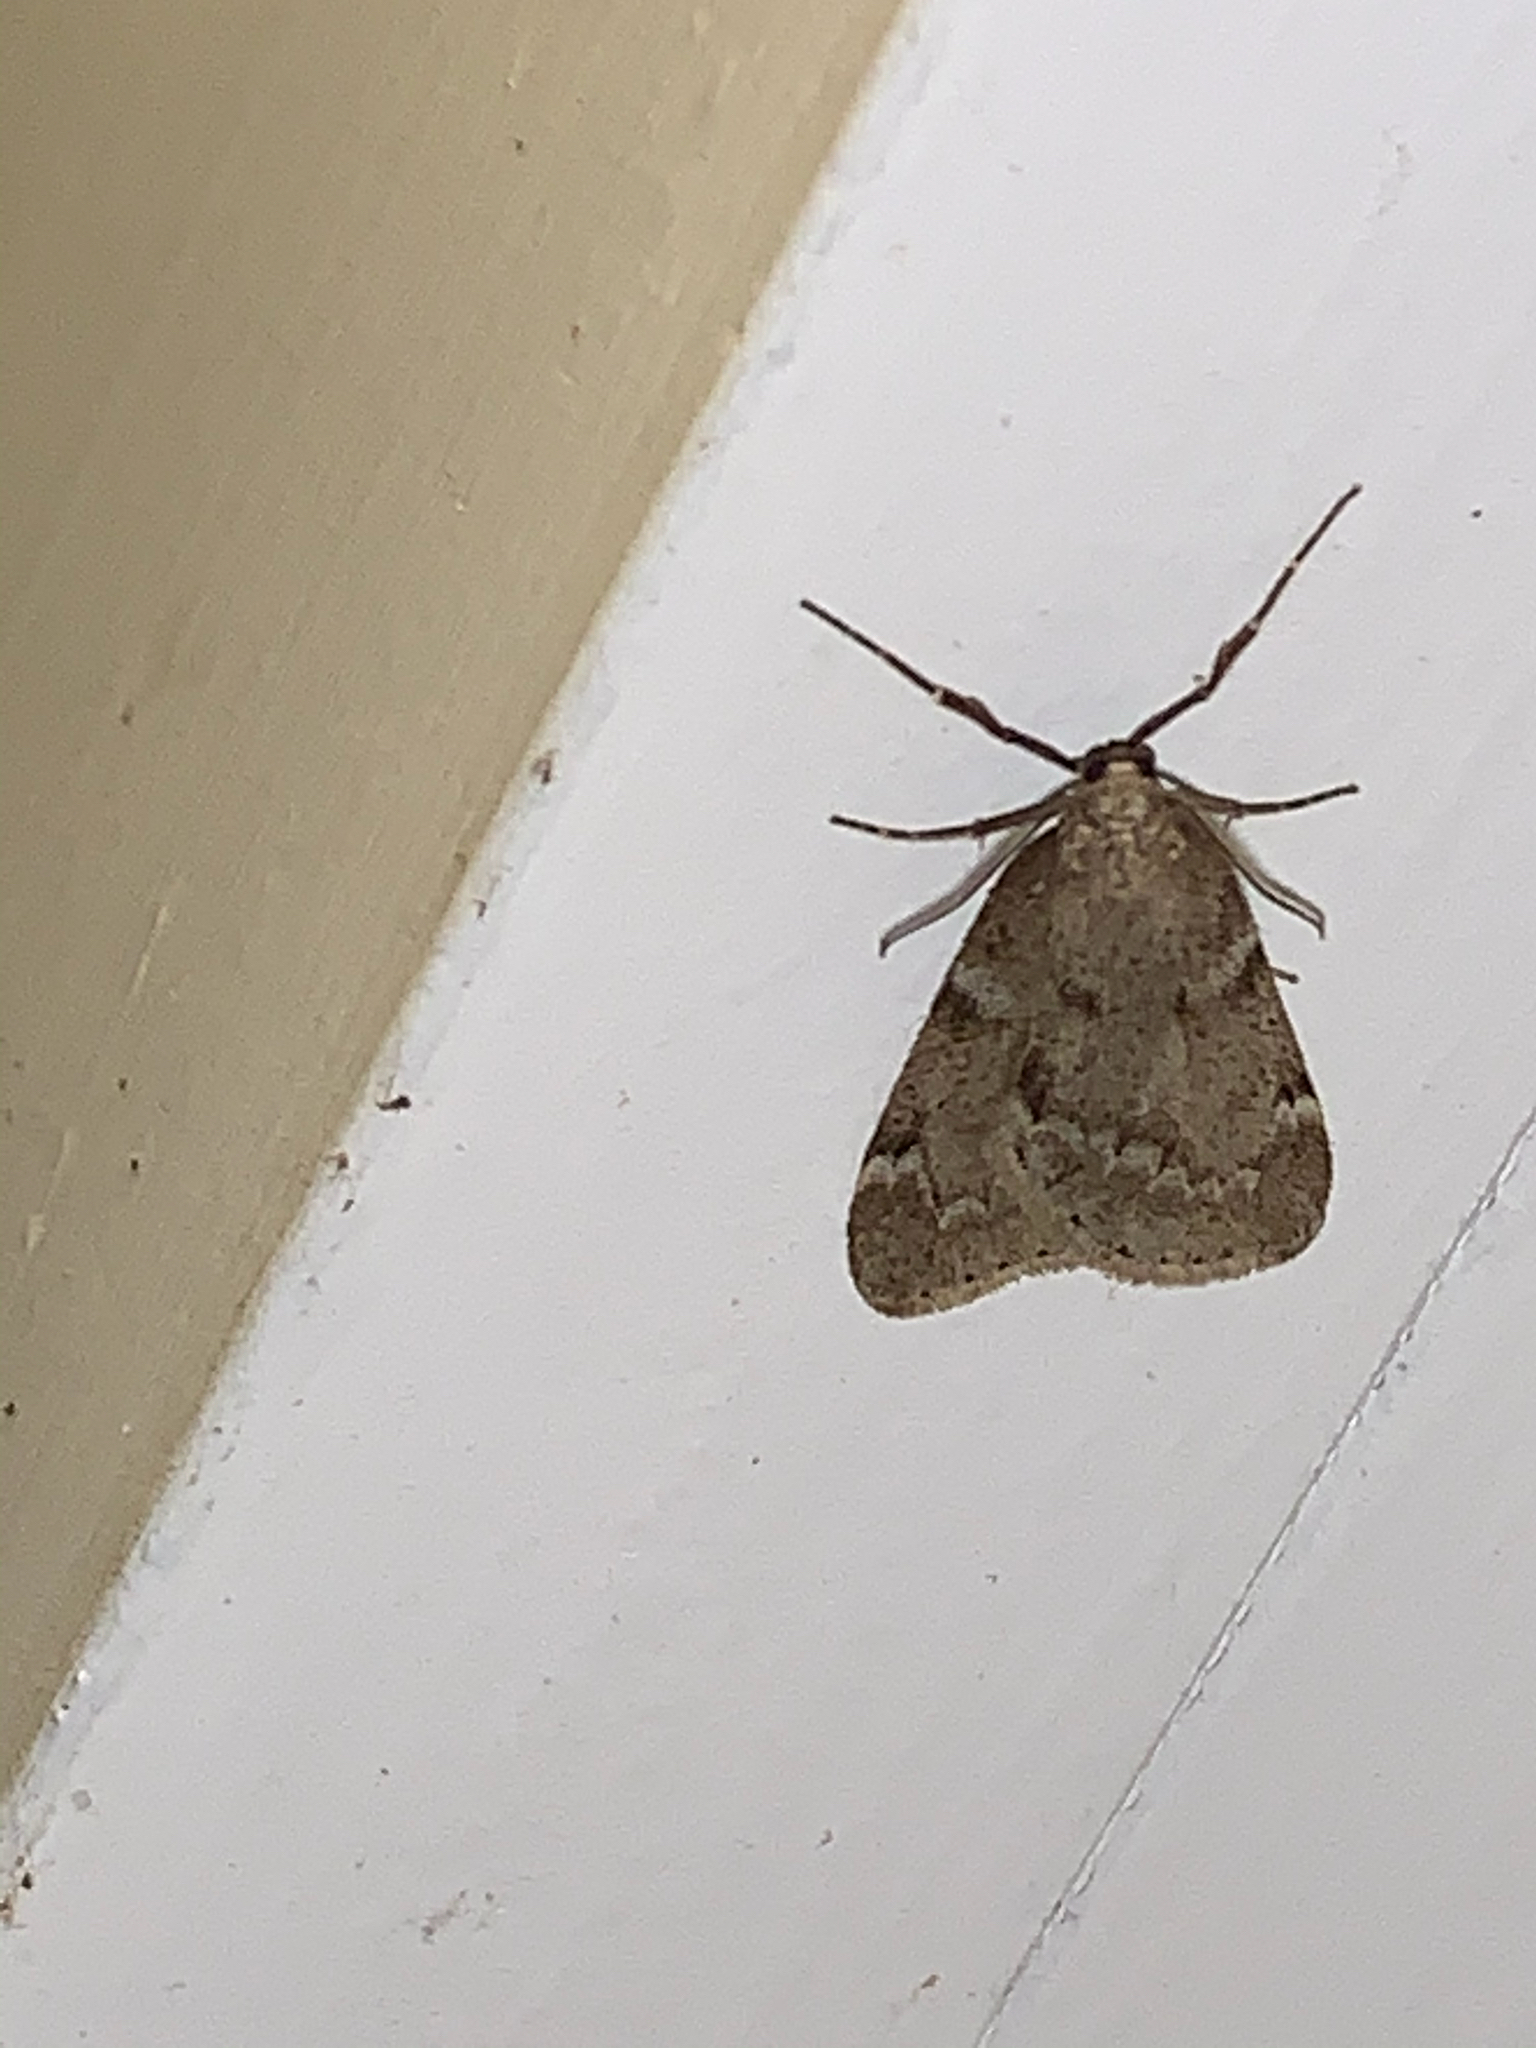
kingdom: Animalia
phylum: Arthropoda
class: Insecta
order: Lepidoptera
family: Geometridae
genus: Alsophila
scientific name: Alsophila pometaria
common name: Fall cankerworm
